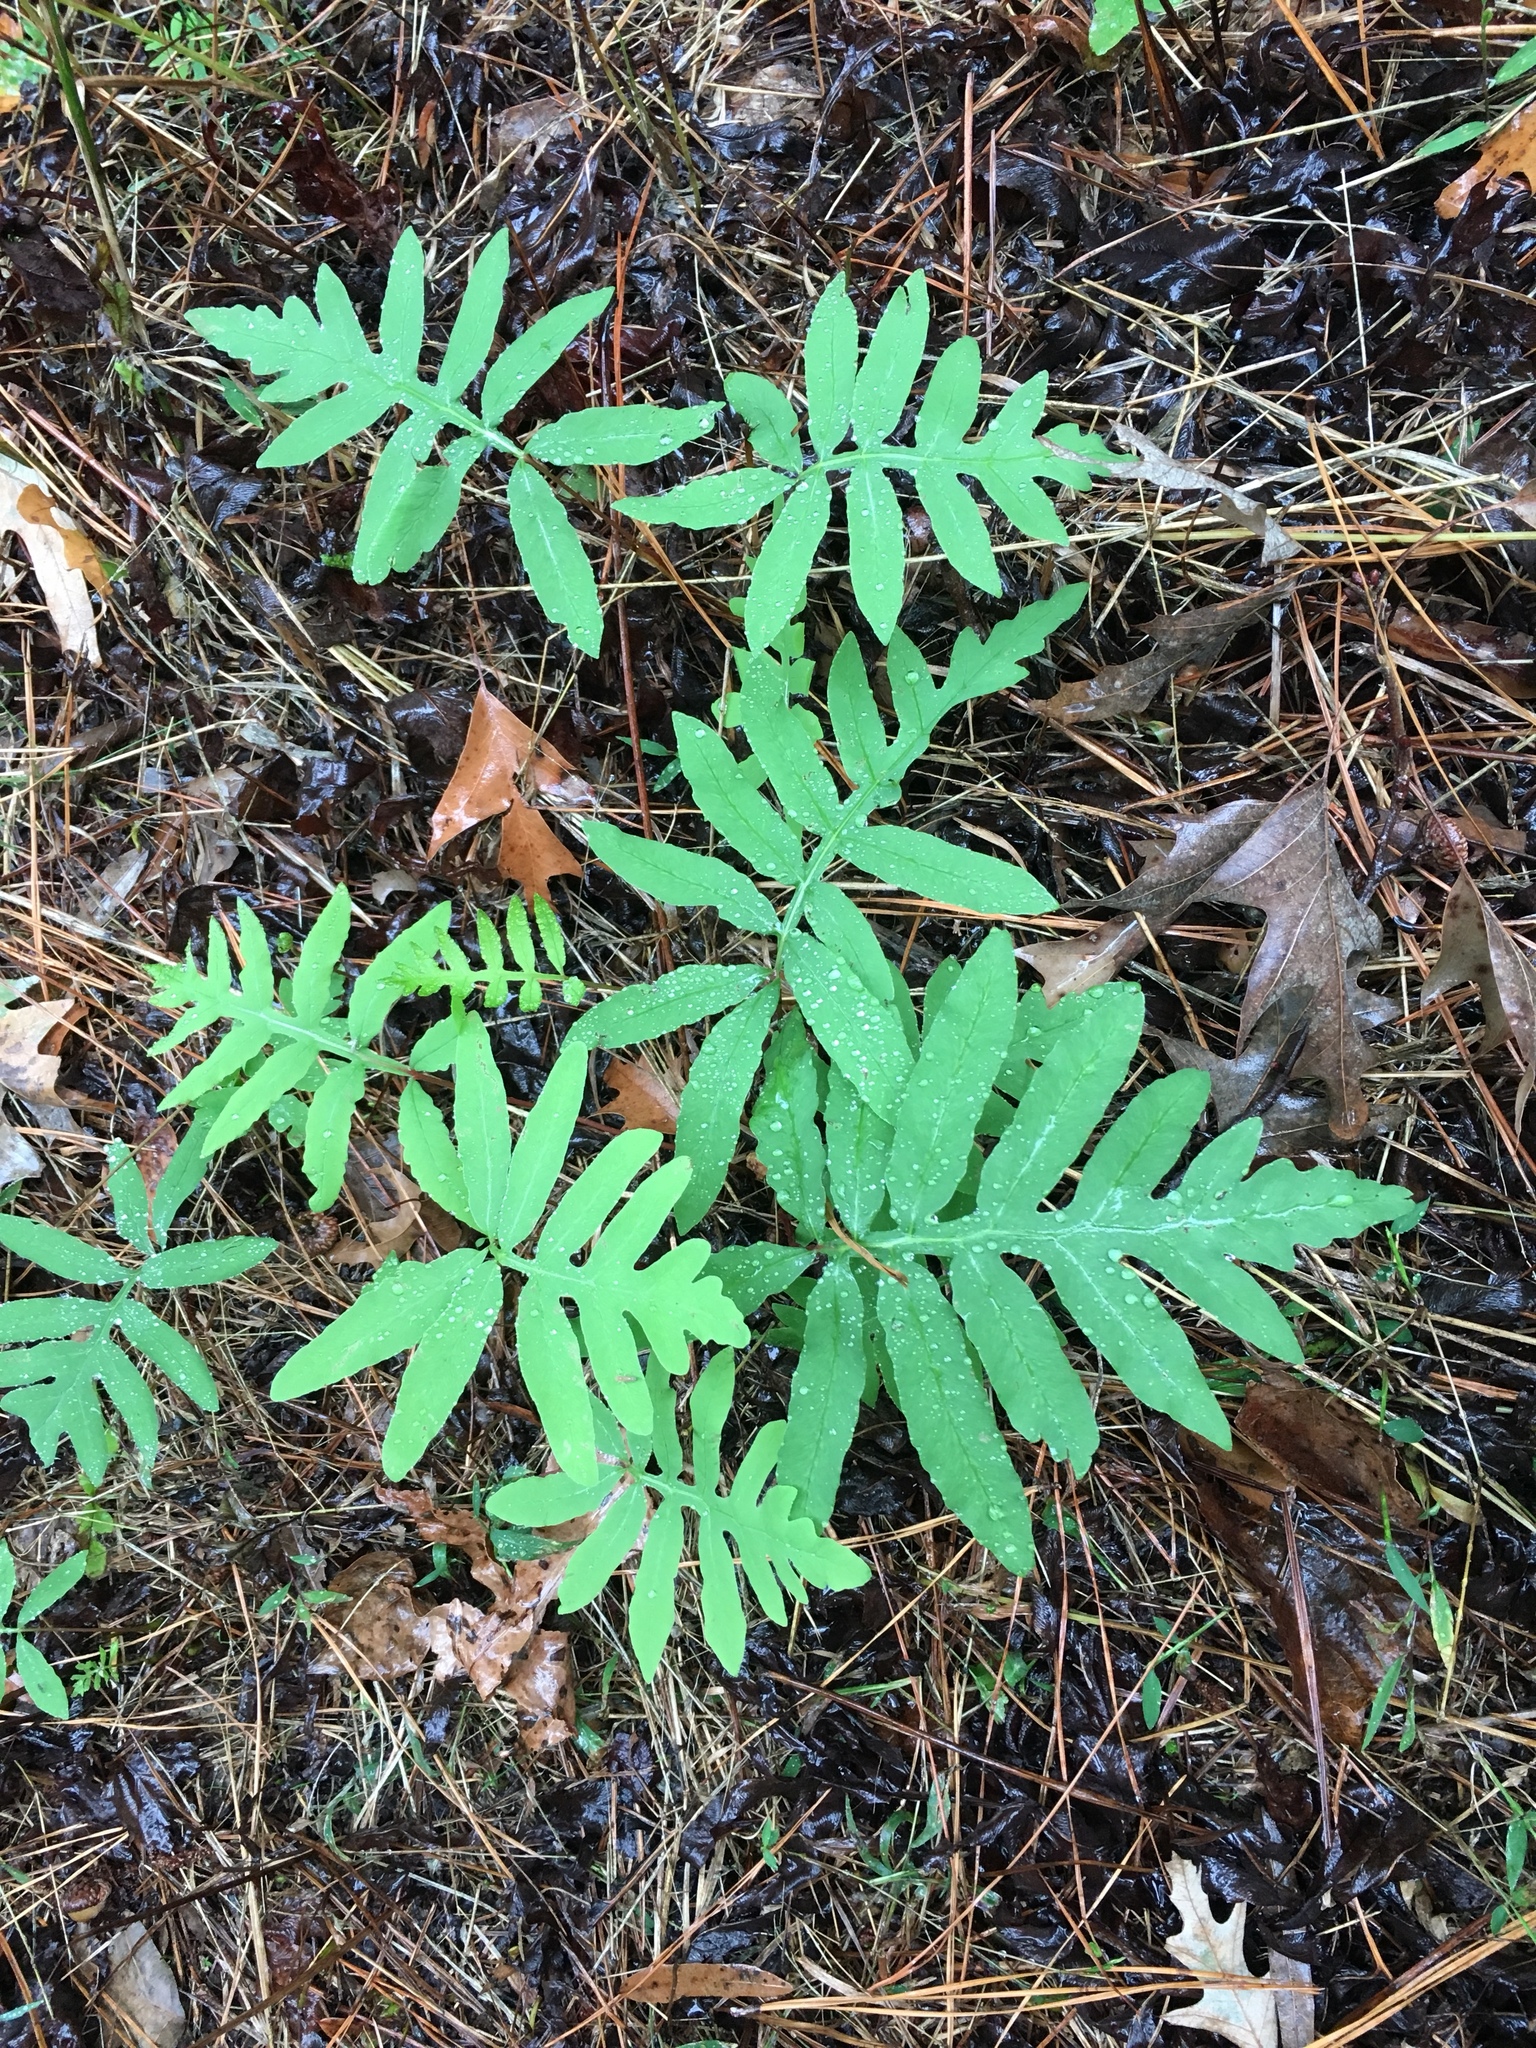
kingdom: Plantae
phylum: Tracheophyta
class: Polypodiopsida
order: Polypodiales
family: Onocleaceae
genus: Onoclea
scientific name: Onoclea sensibilis
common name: Sensitive fern
